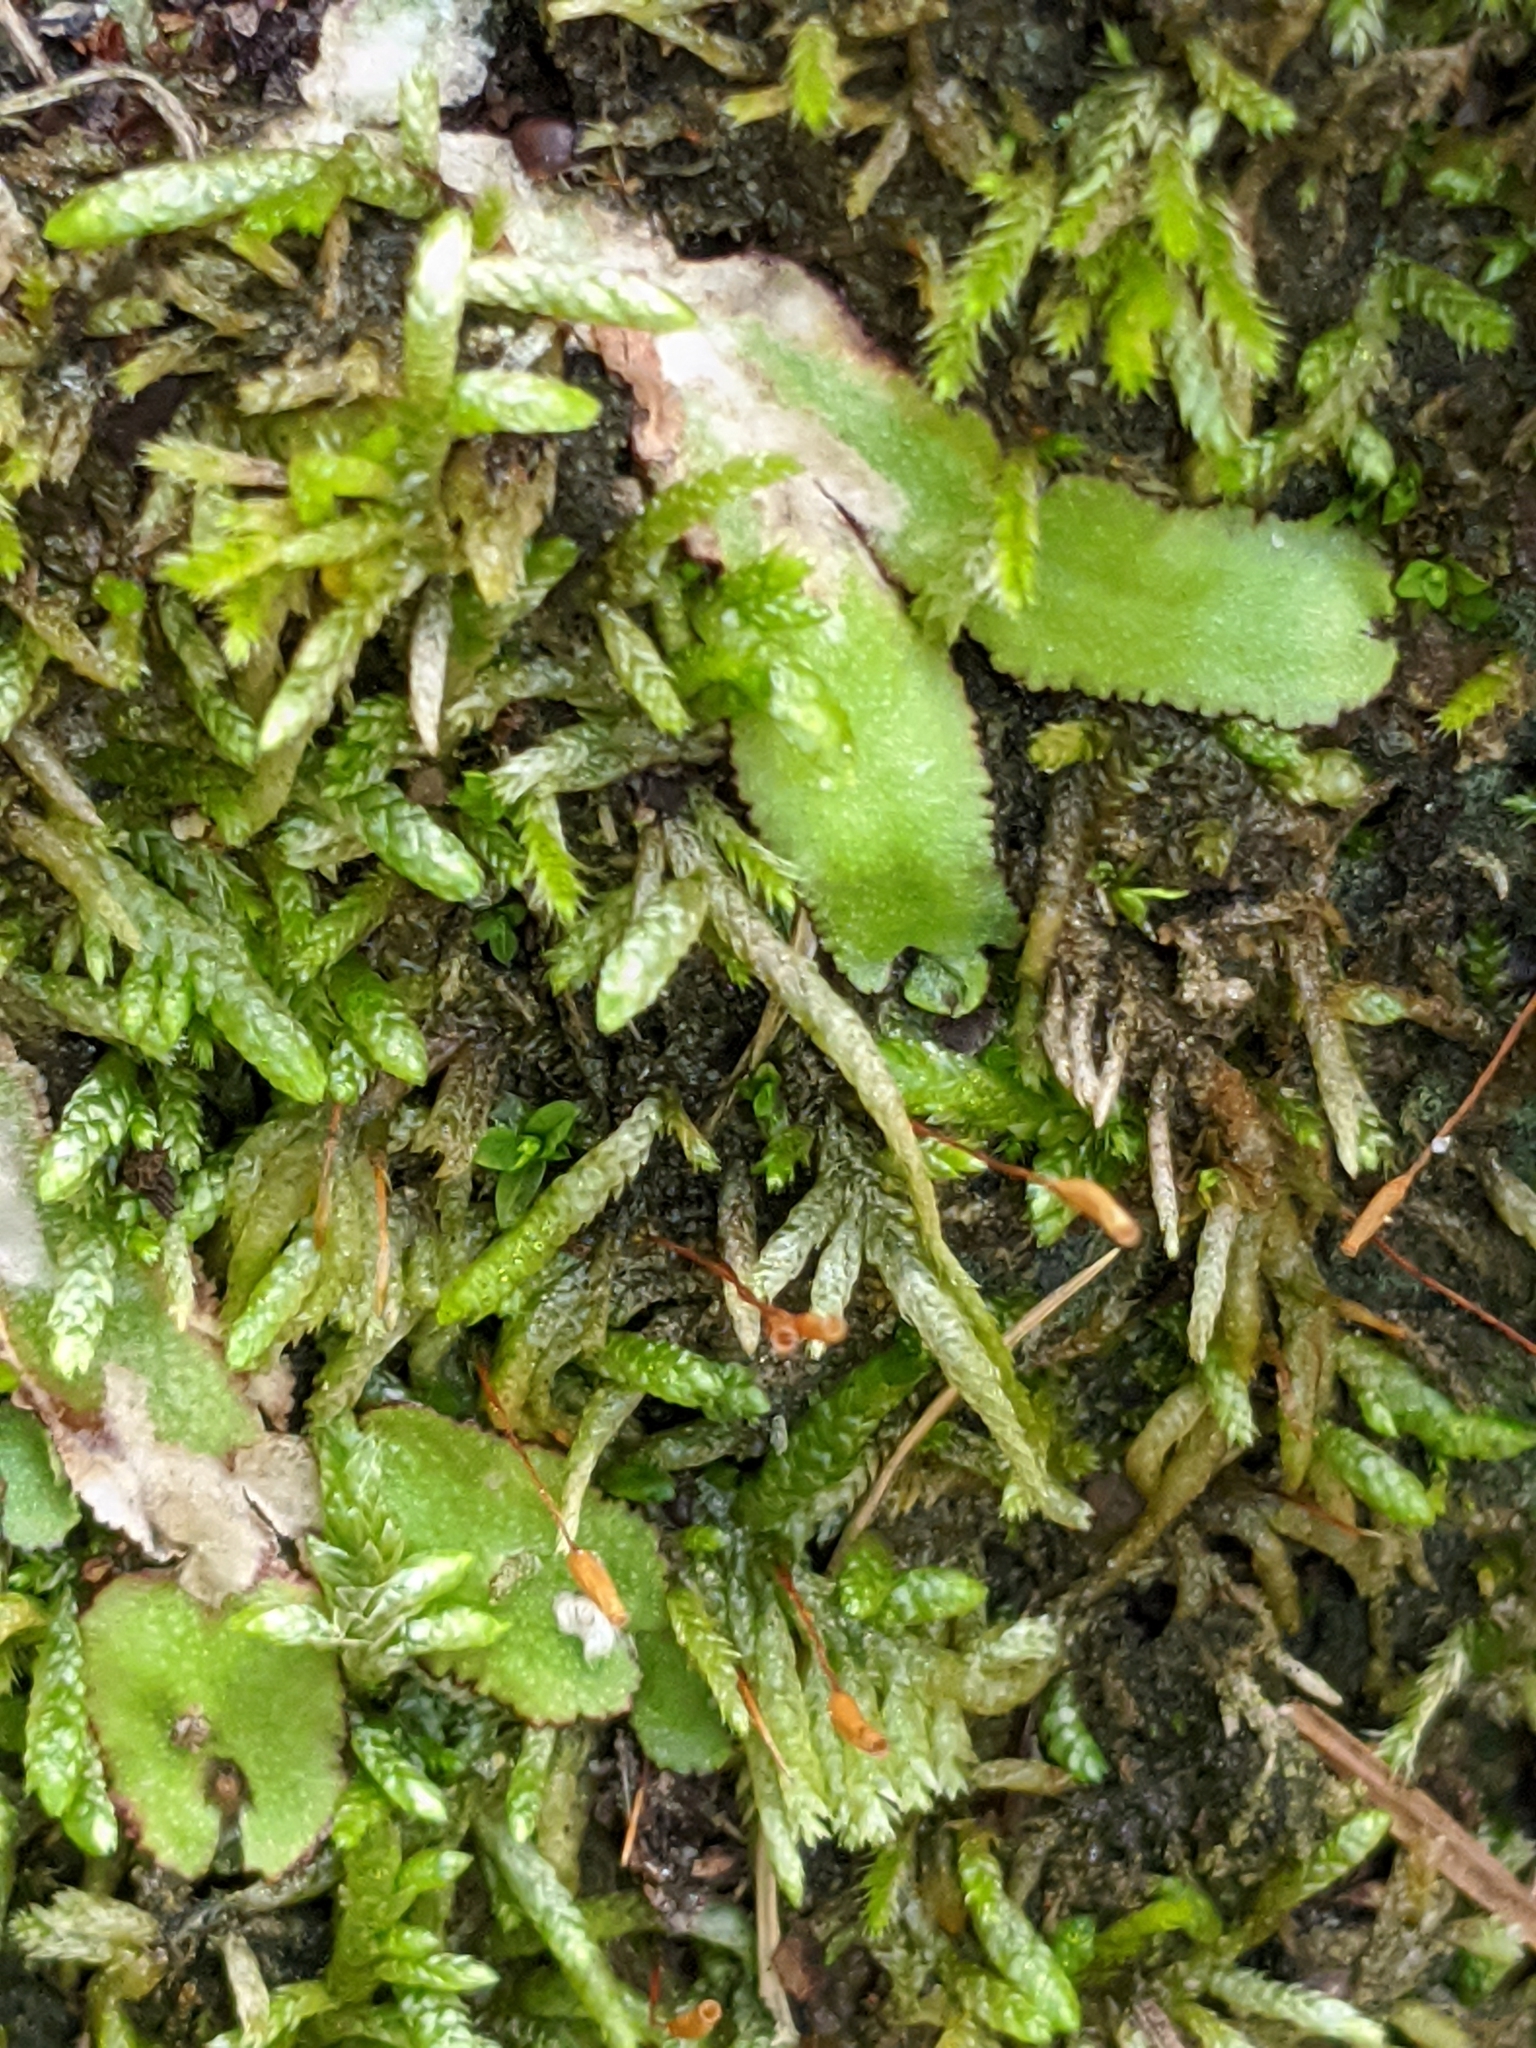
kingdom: Plantae
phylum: Marchantiophyta
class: Marchantiopsida
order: Marchantiales
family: Aytoniaceae
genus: Reboulia
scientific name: Reboulia hemisphaerica
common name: Purple-margined liverwort
